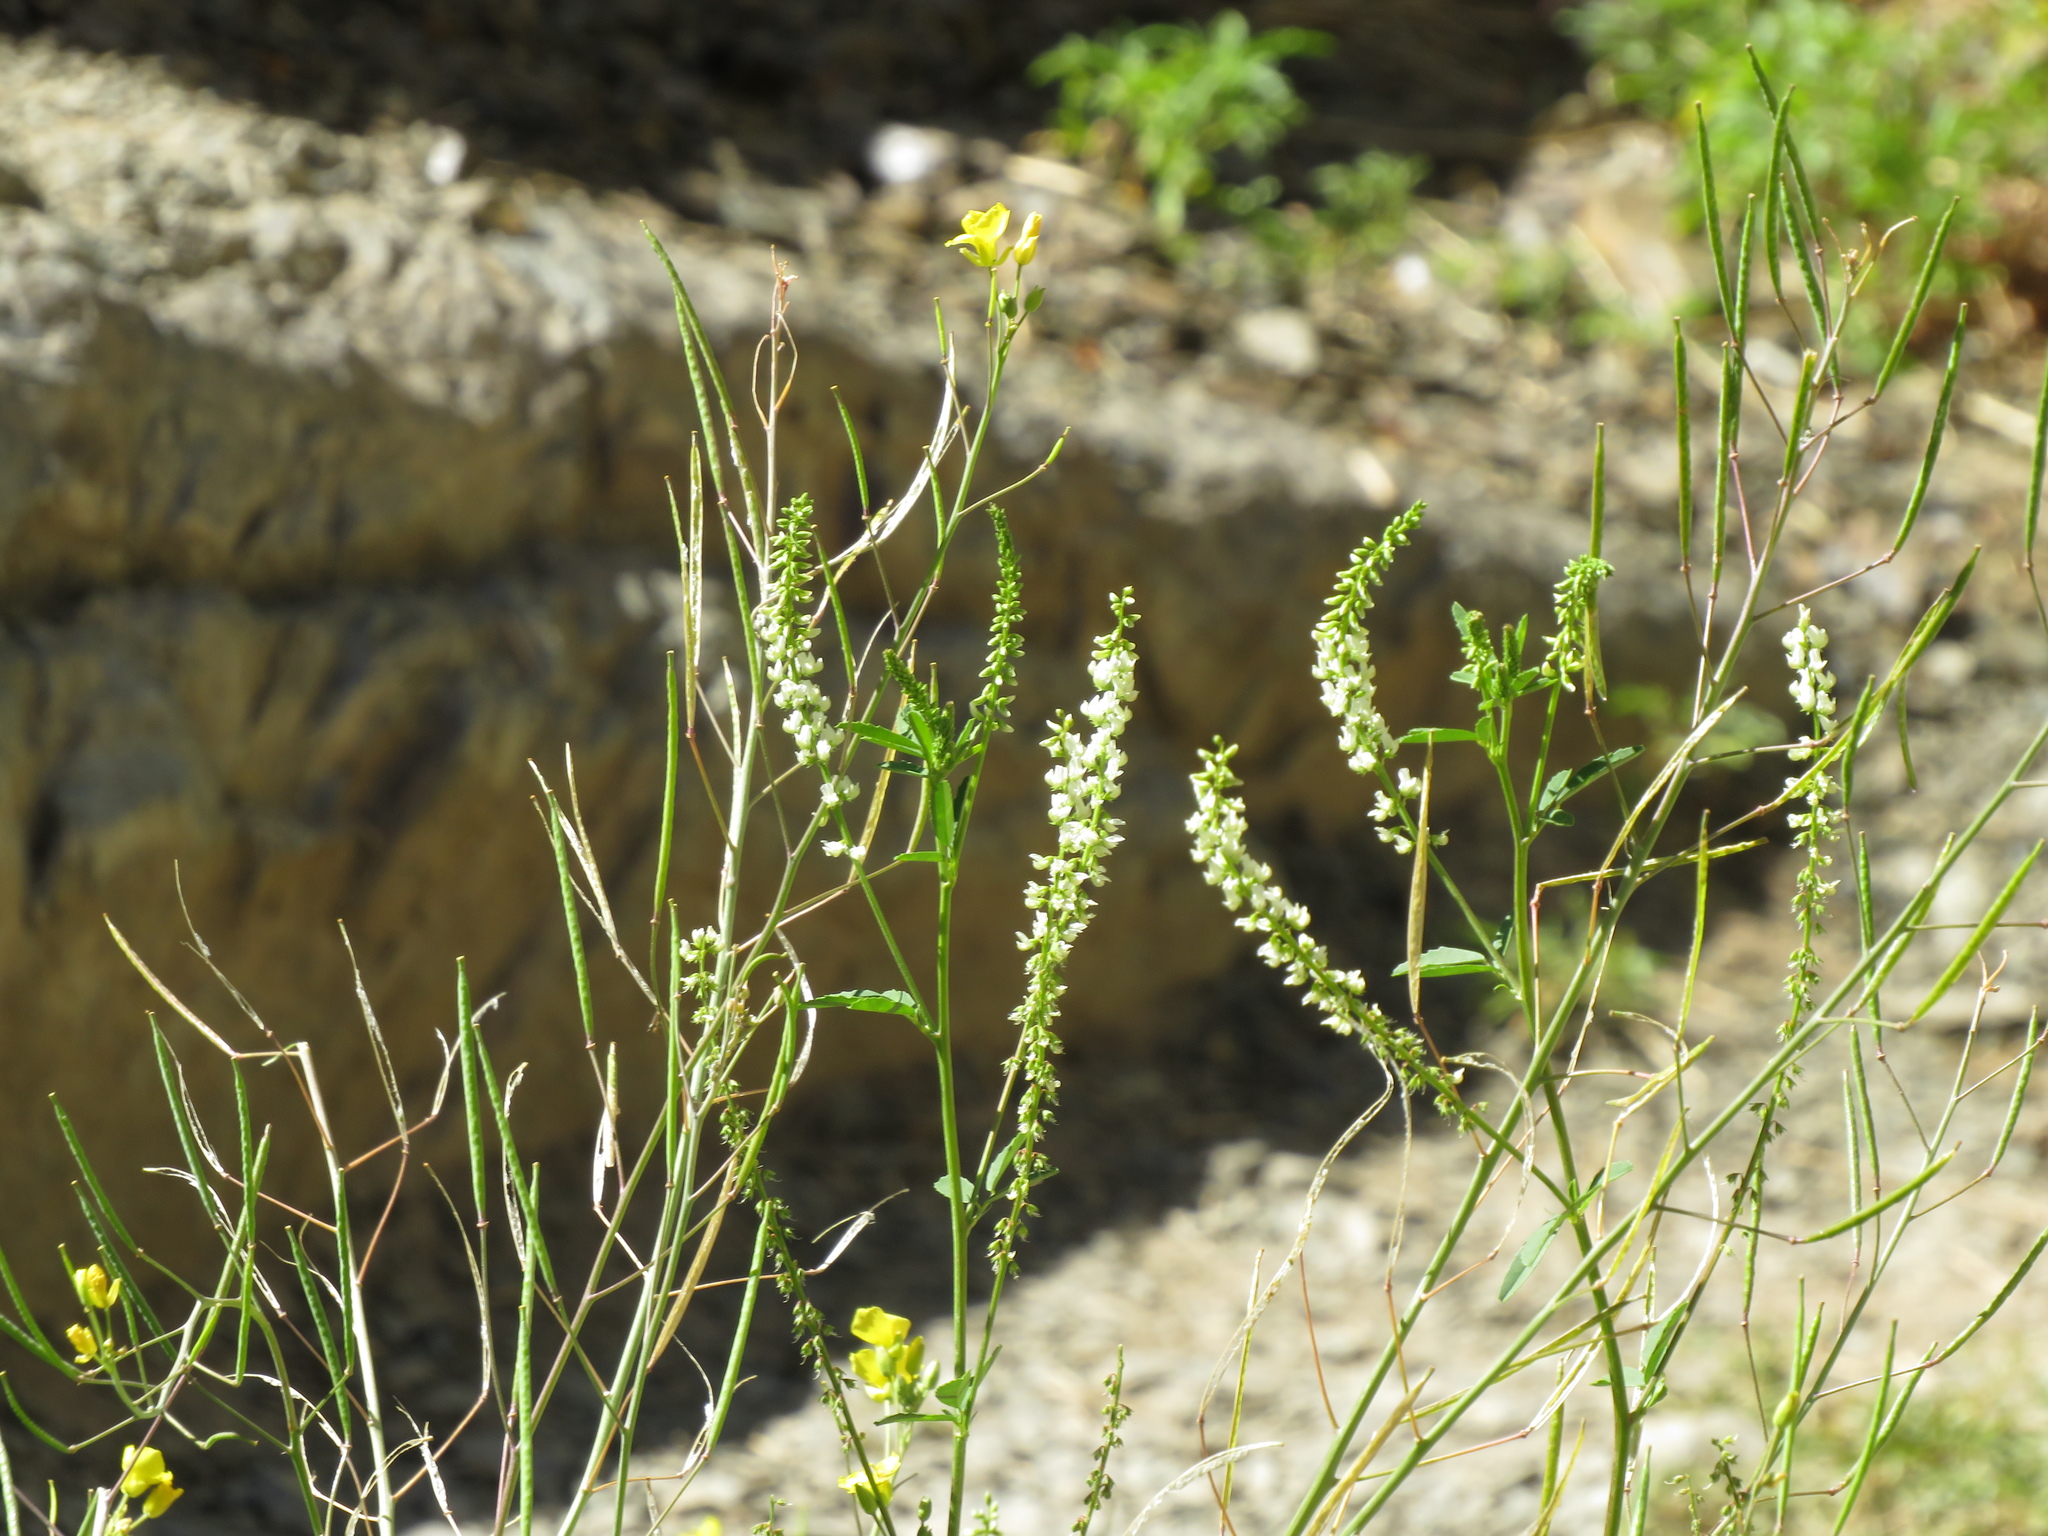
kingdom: Plantae
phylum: Tracheophyta
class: Magnoliopsida
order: Fabales
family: Fabaceae
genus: Melilotus
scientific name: Melilotus albus
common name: White melilot
